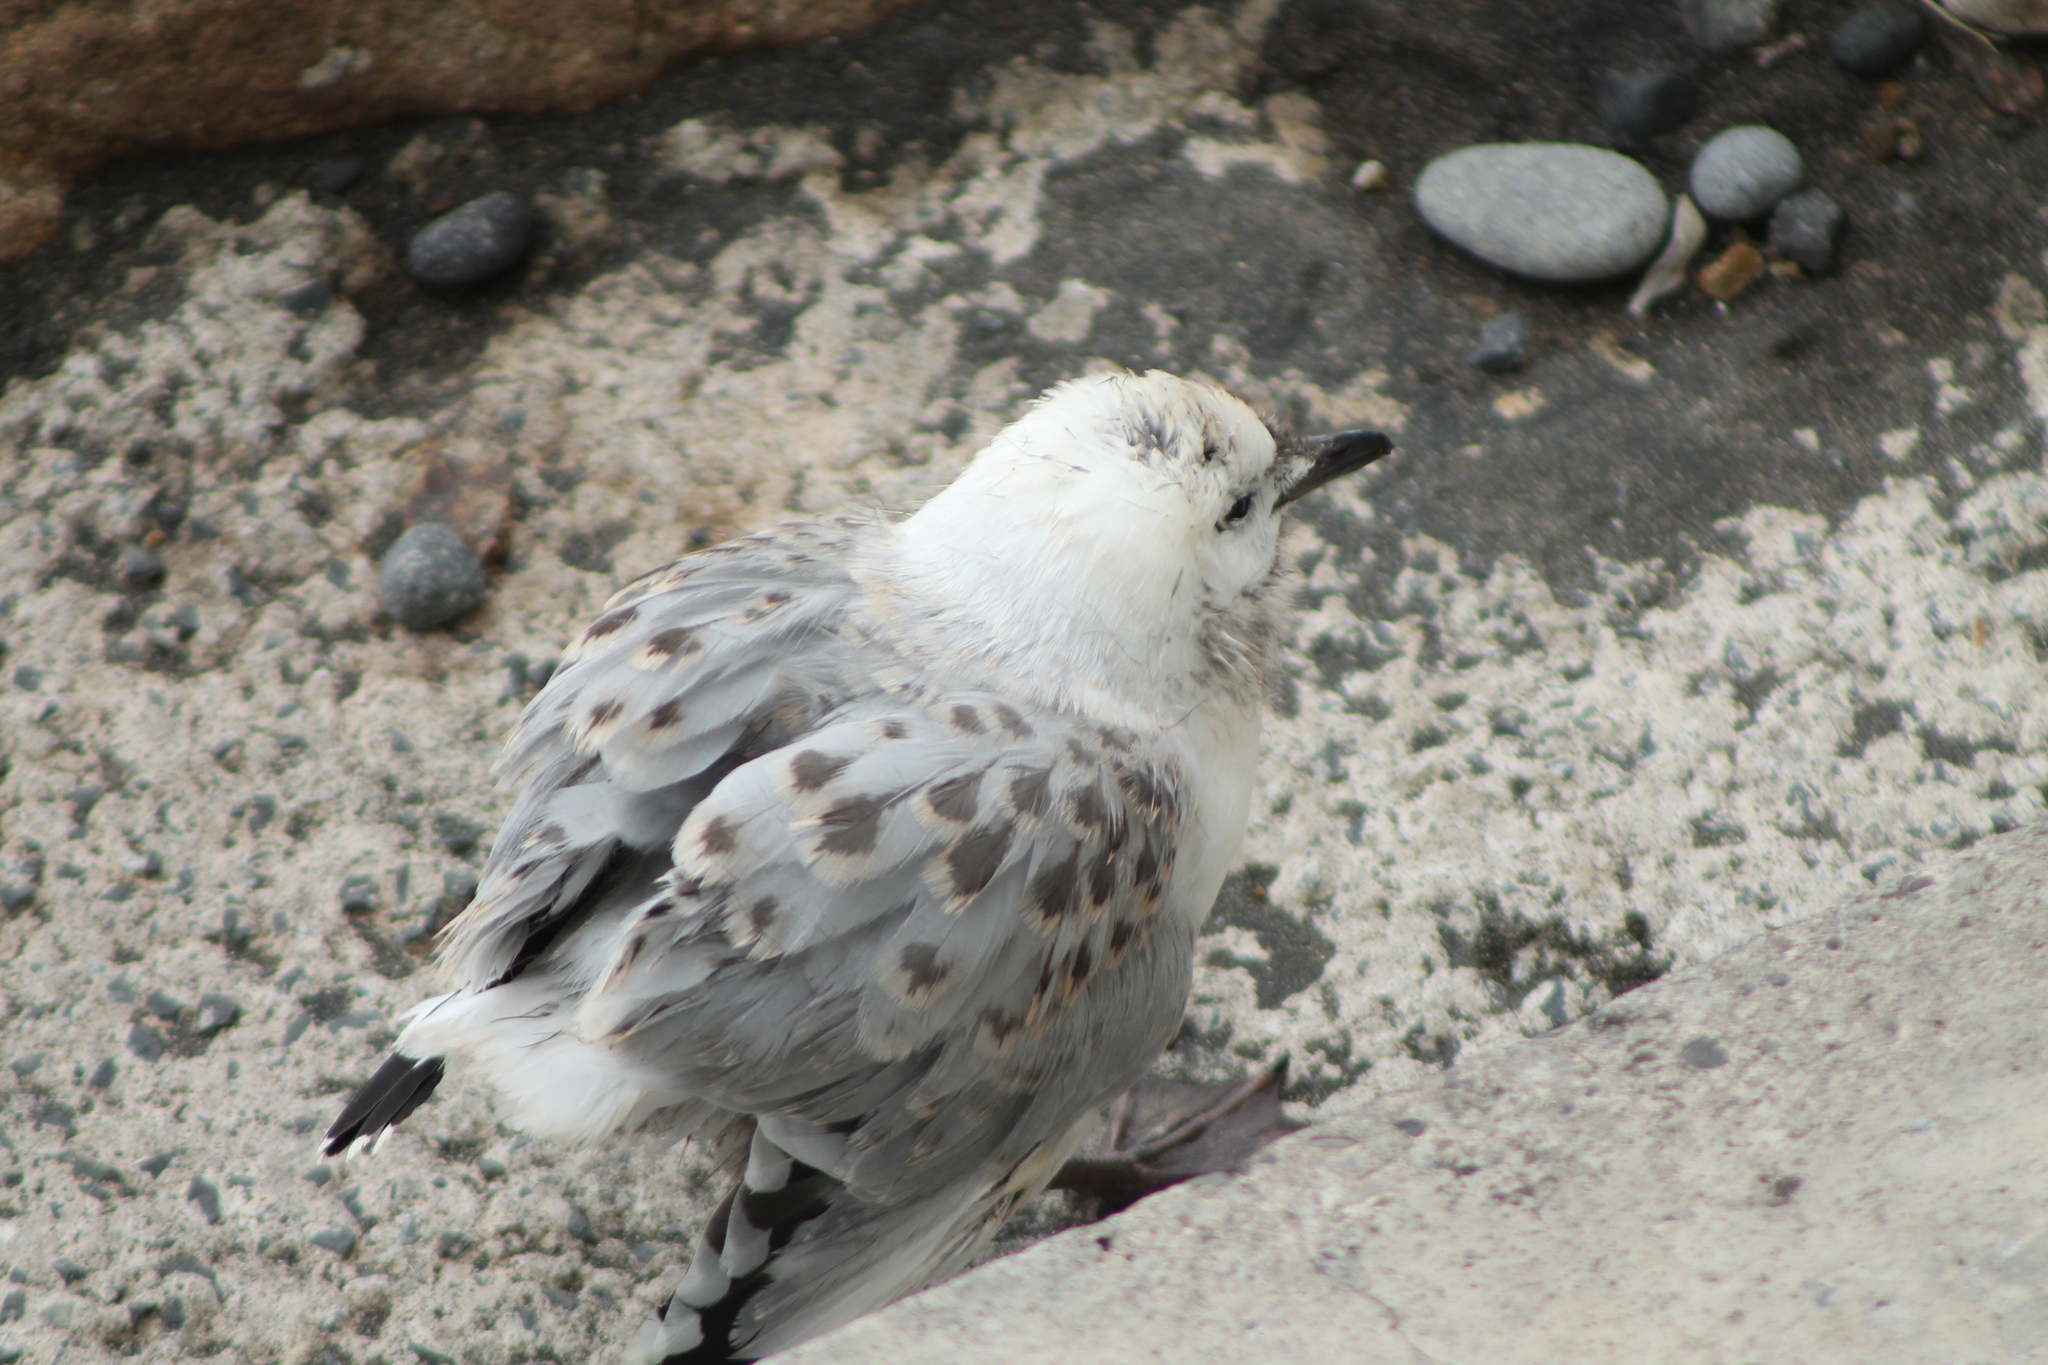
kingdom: Animalia
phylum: Chordata
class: Aves
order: Charadriiformes
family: Laridae
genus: Chroicocephalus
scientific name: Chroicocephalus novaehollandiae
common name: Silver gull
